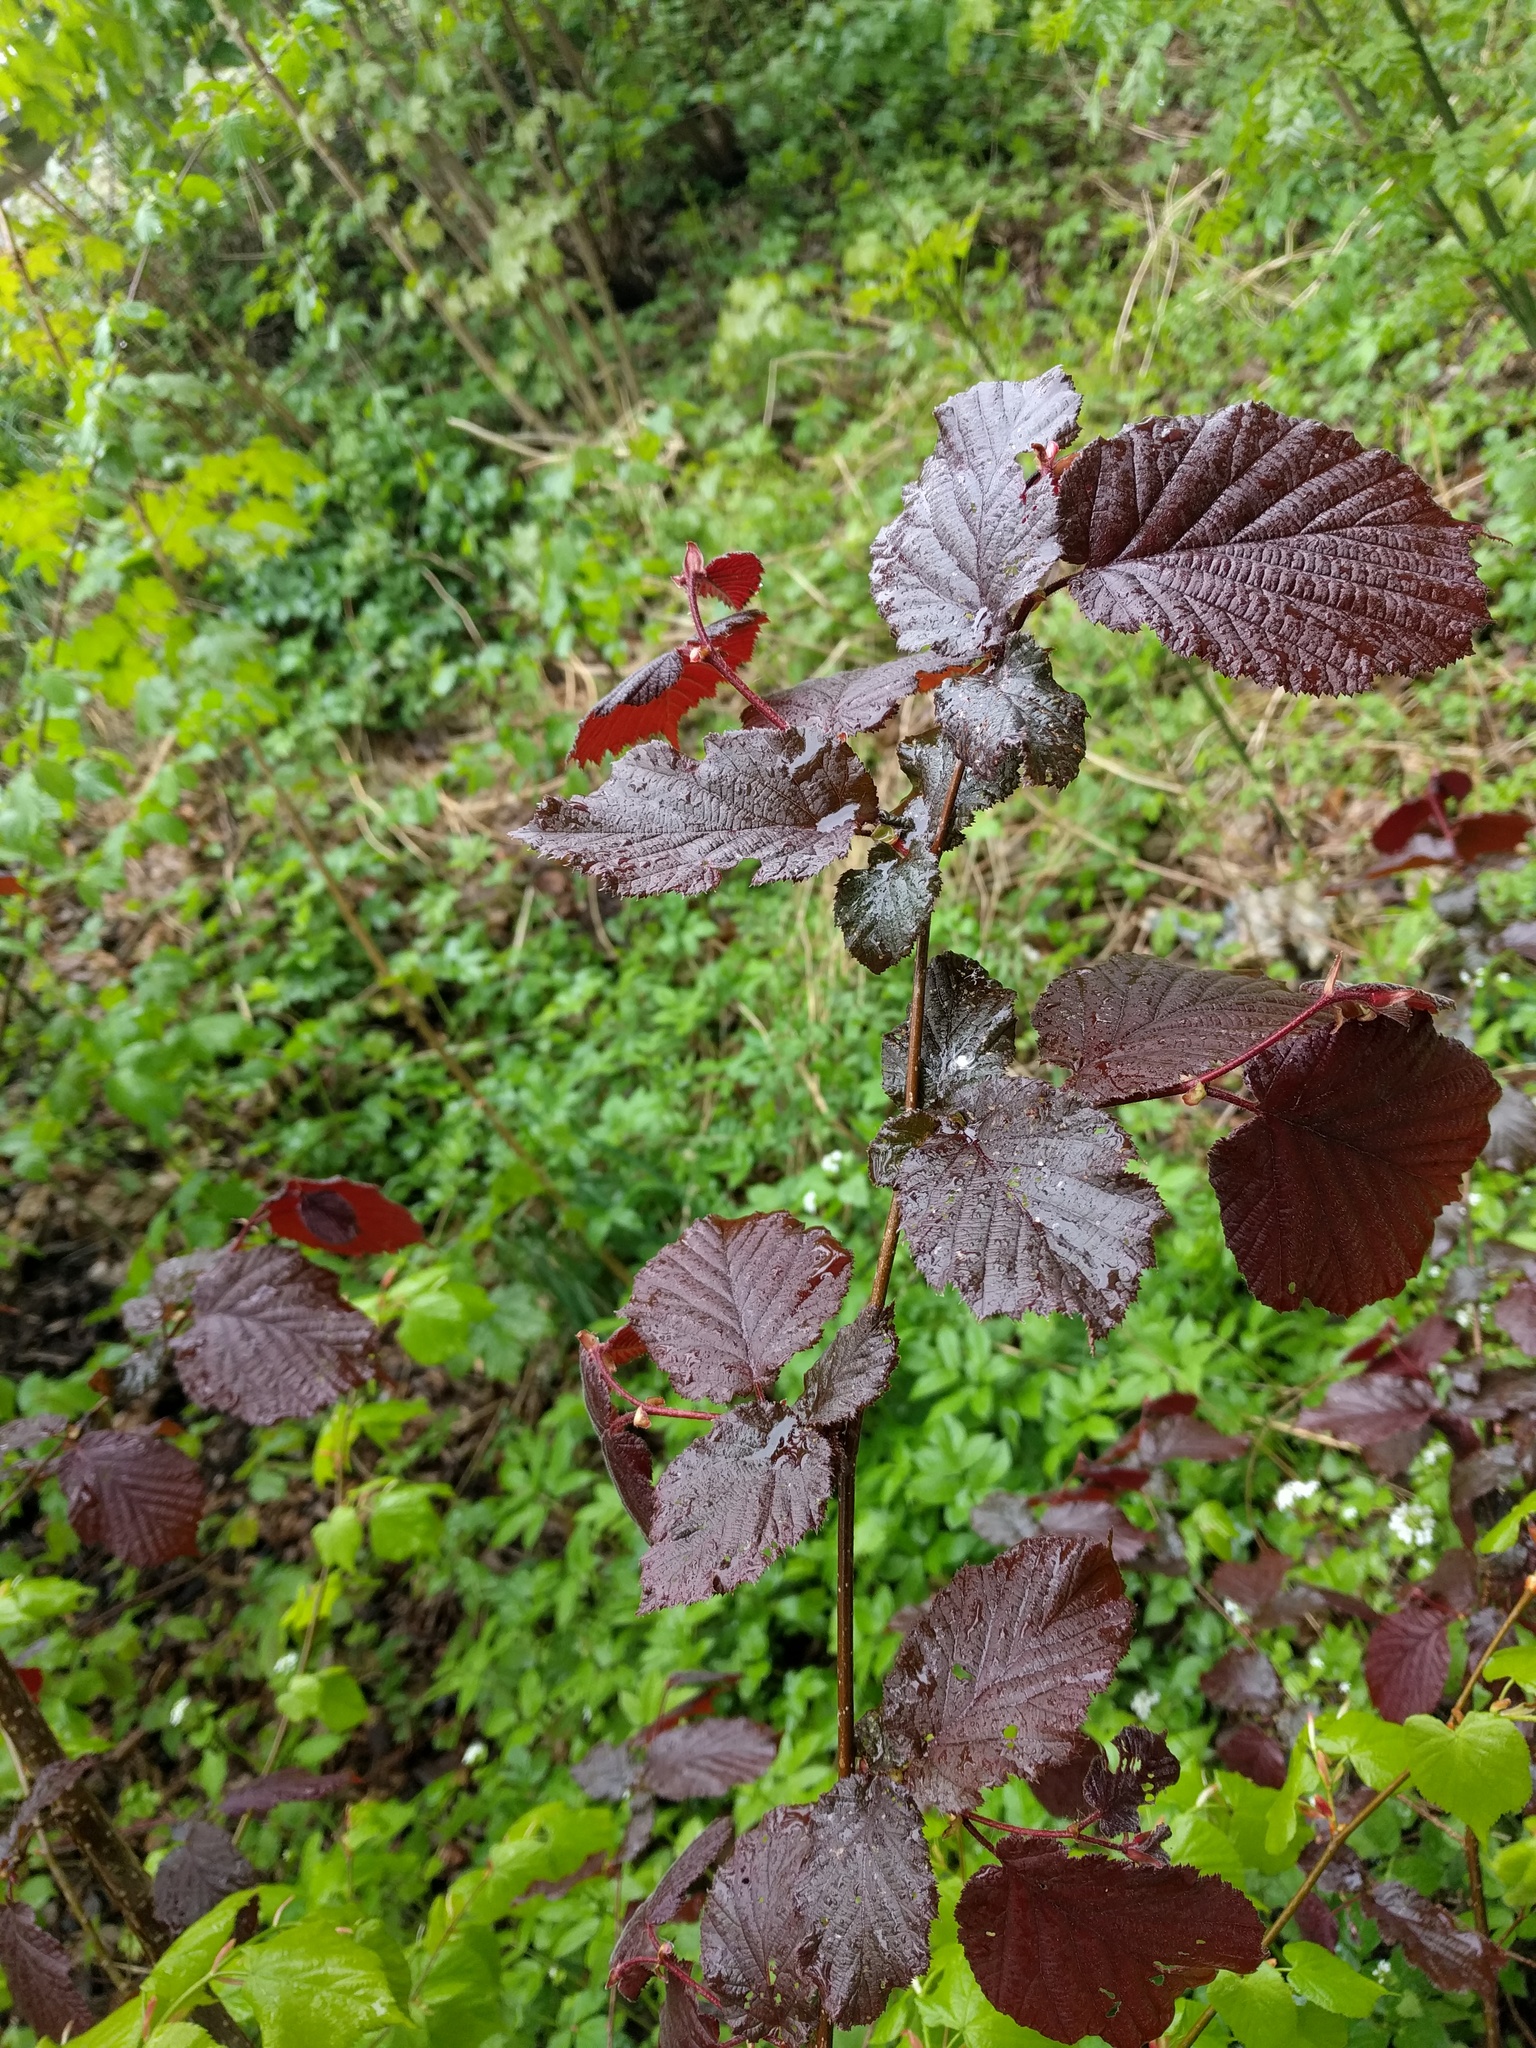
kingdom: Plantae
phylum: Tracheophyta
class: Magnoliopsida
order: Fagales
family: Betulaceae
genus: Corylus
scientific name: Corylus avellana
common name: European hazel
